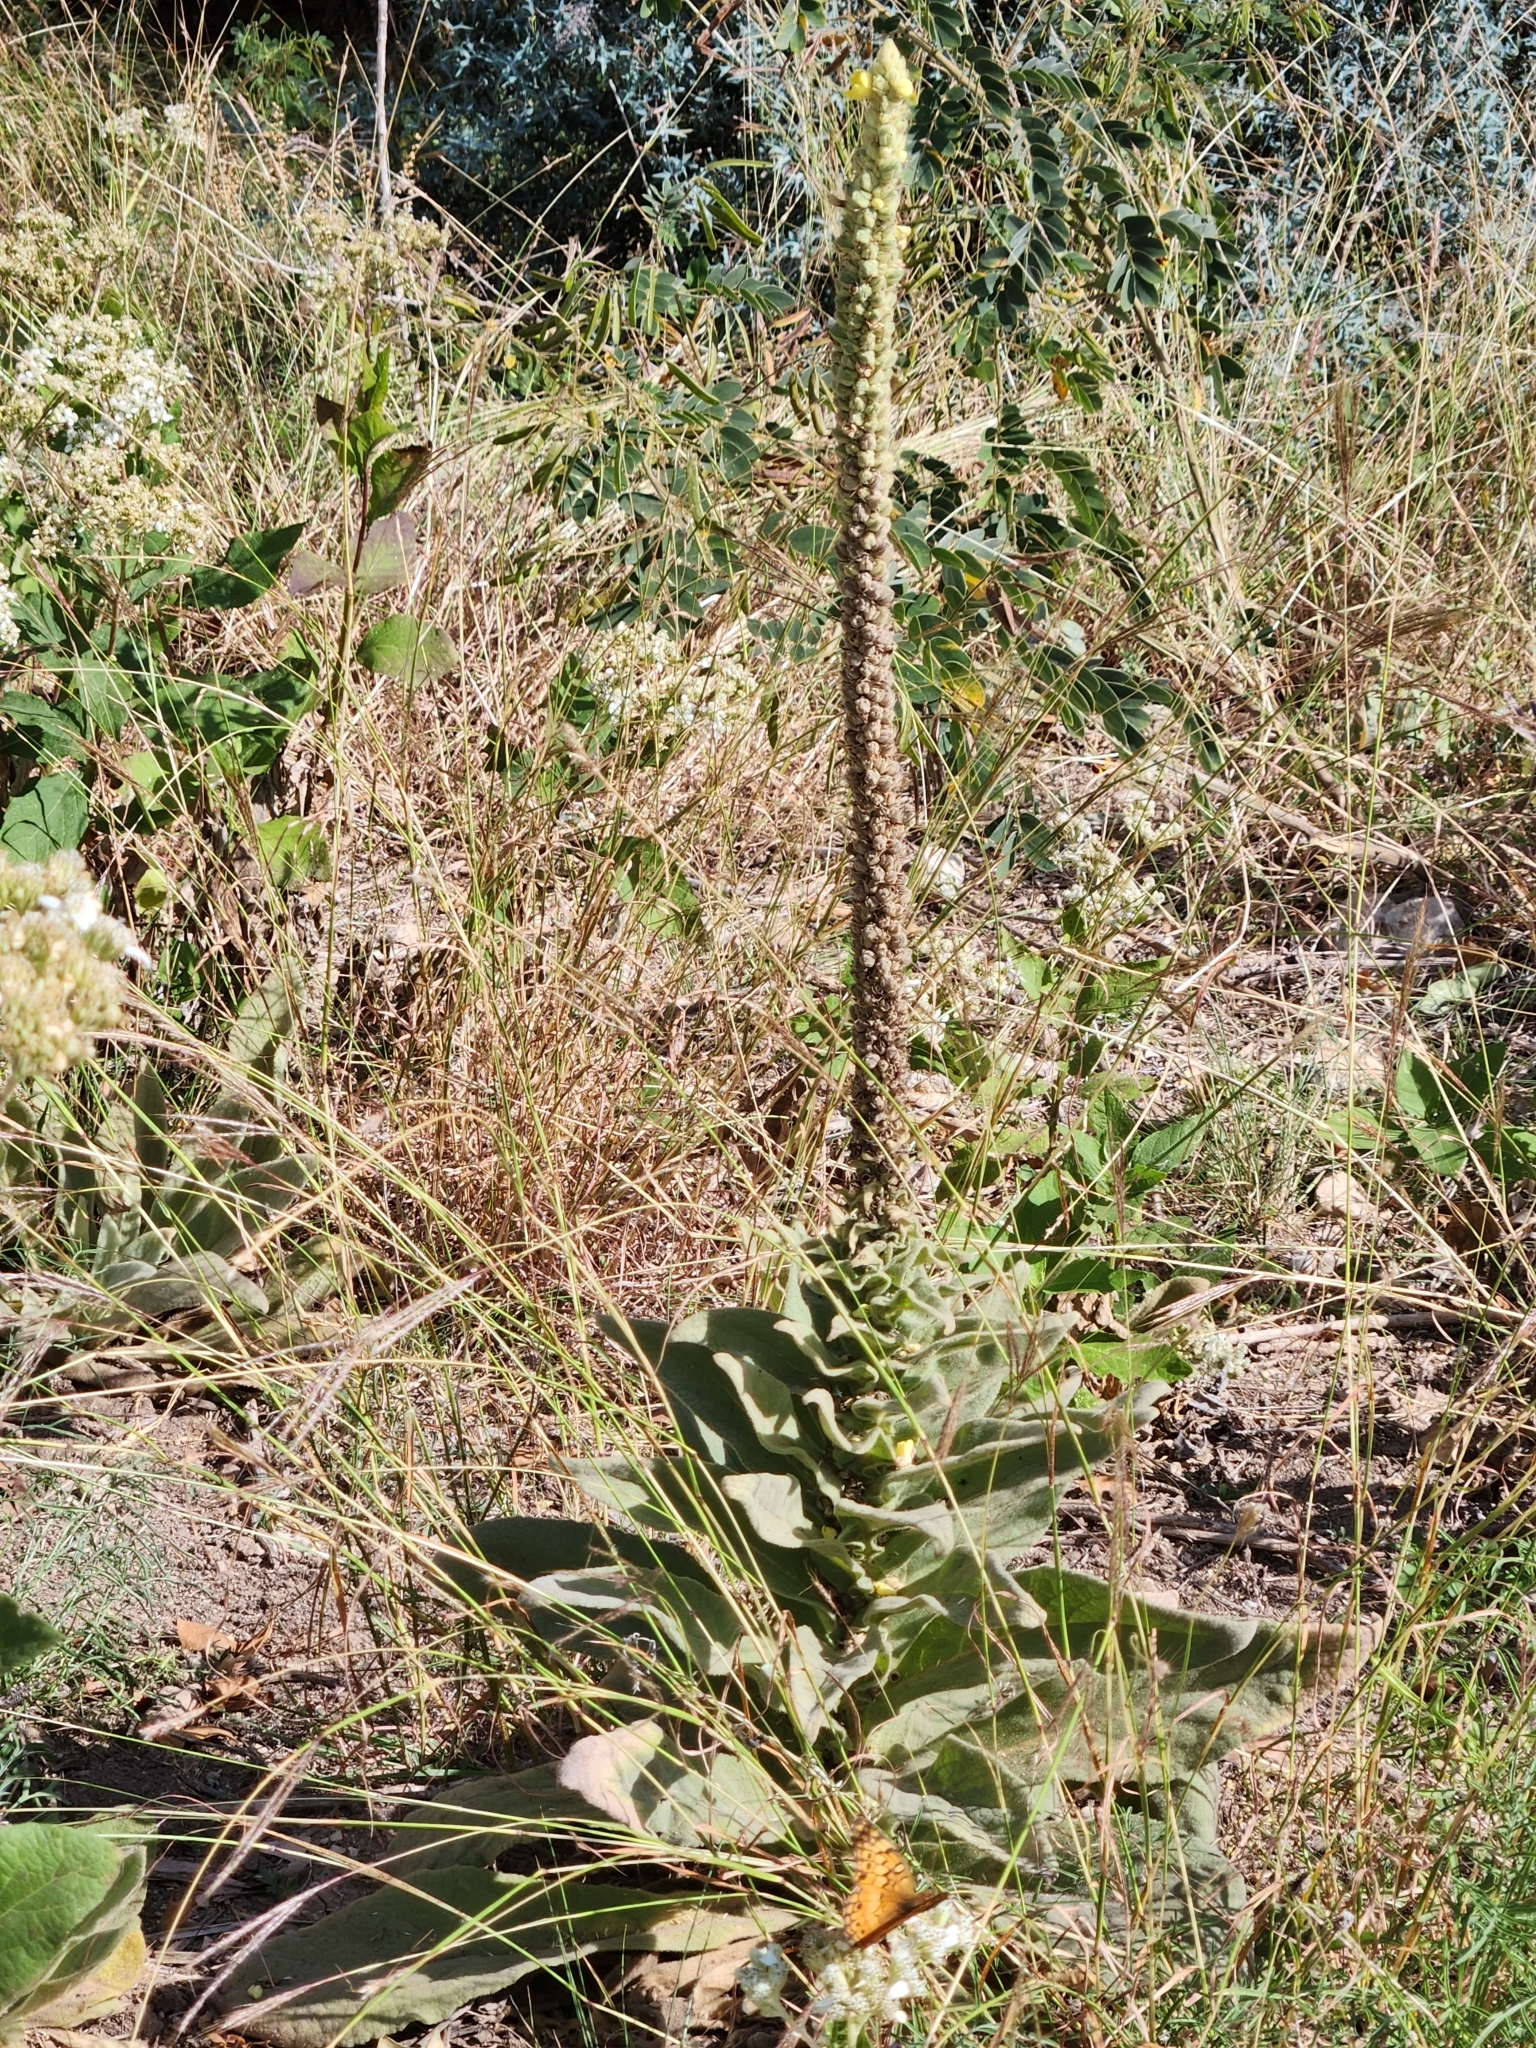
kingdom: Plantae
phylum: Tracheophyta
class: Magnoliopsida
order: Lamiales
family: Scrophulariaceae
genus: Verbascum
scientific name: Verbascum thapsus
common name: Common mullein
